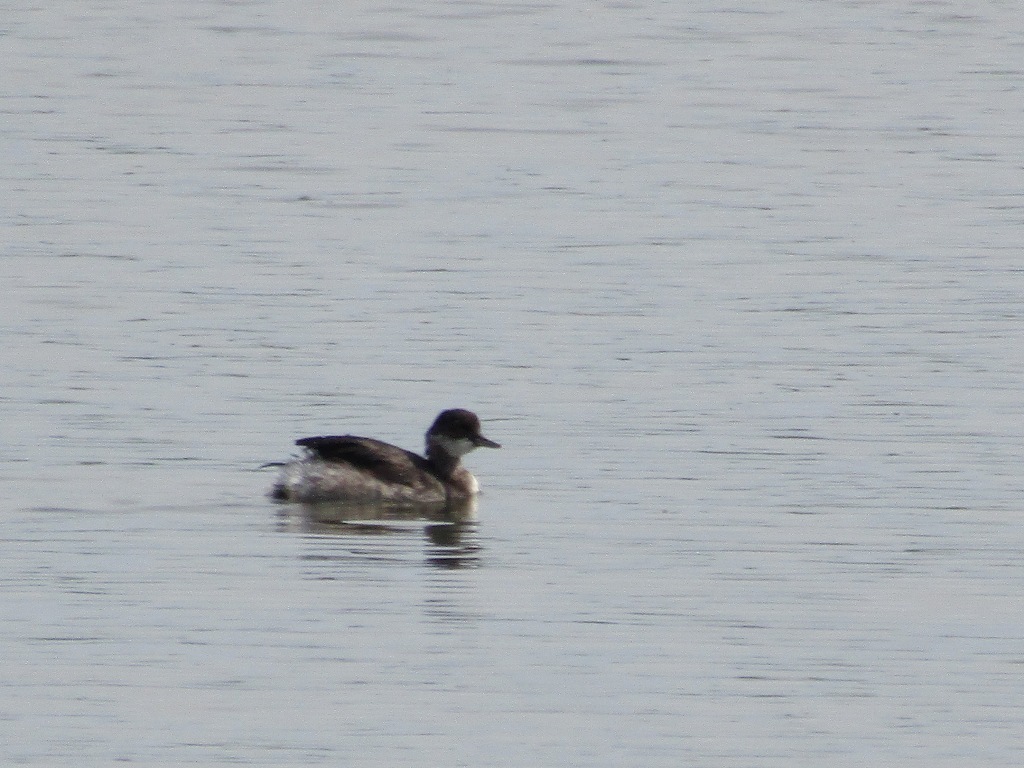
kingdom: Animalia
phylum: Chordata
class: Aves
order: Podicipediformes
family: Podicipedidae
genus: Podiceps
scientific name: Podiceps nigricollis
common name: Black-necked grebe
